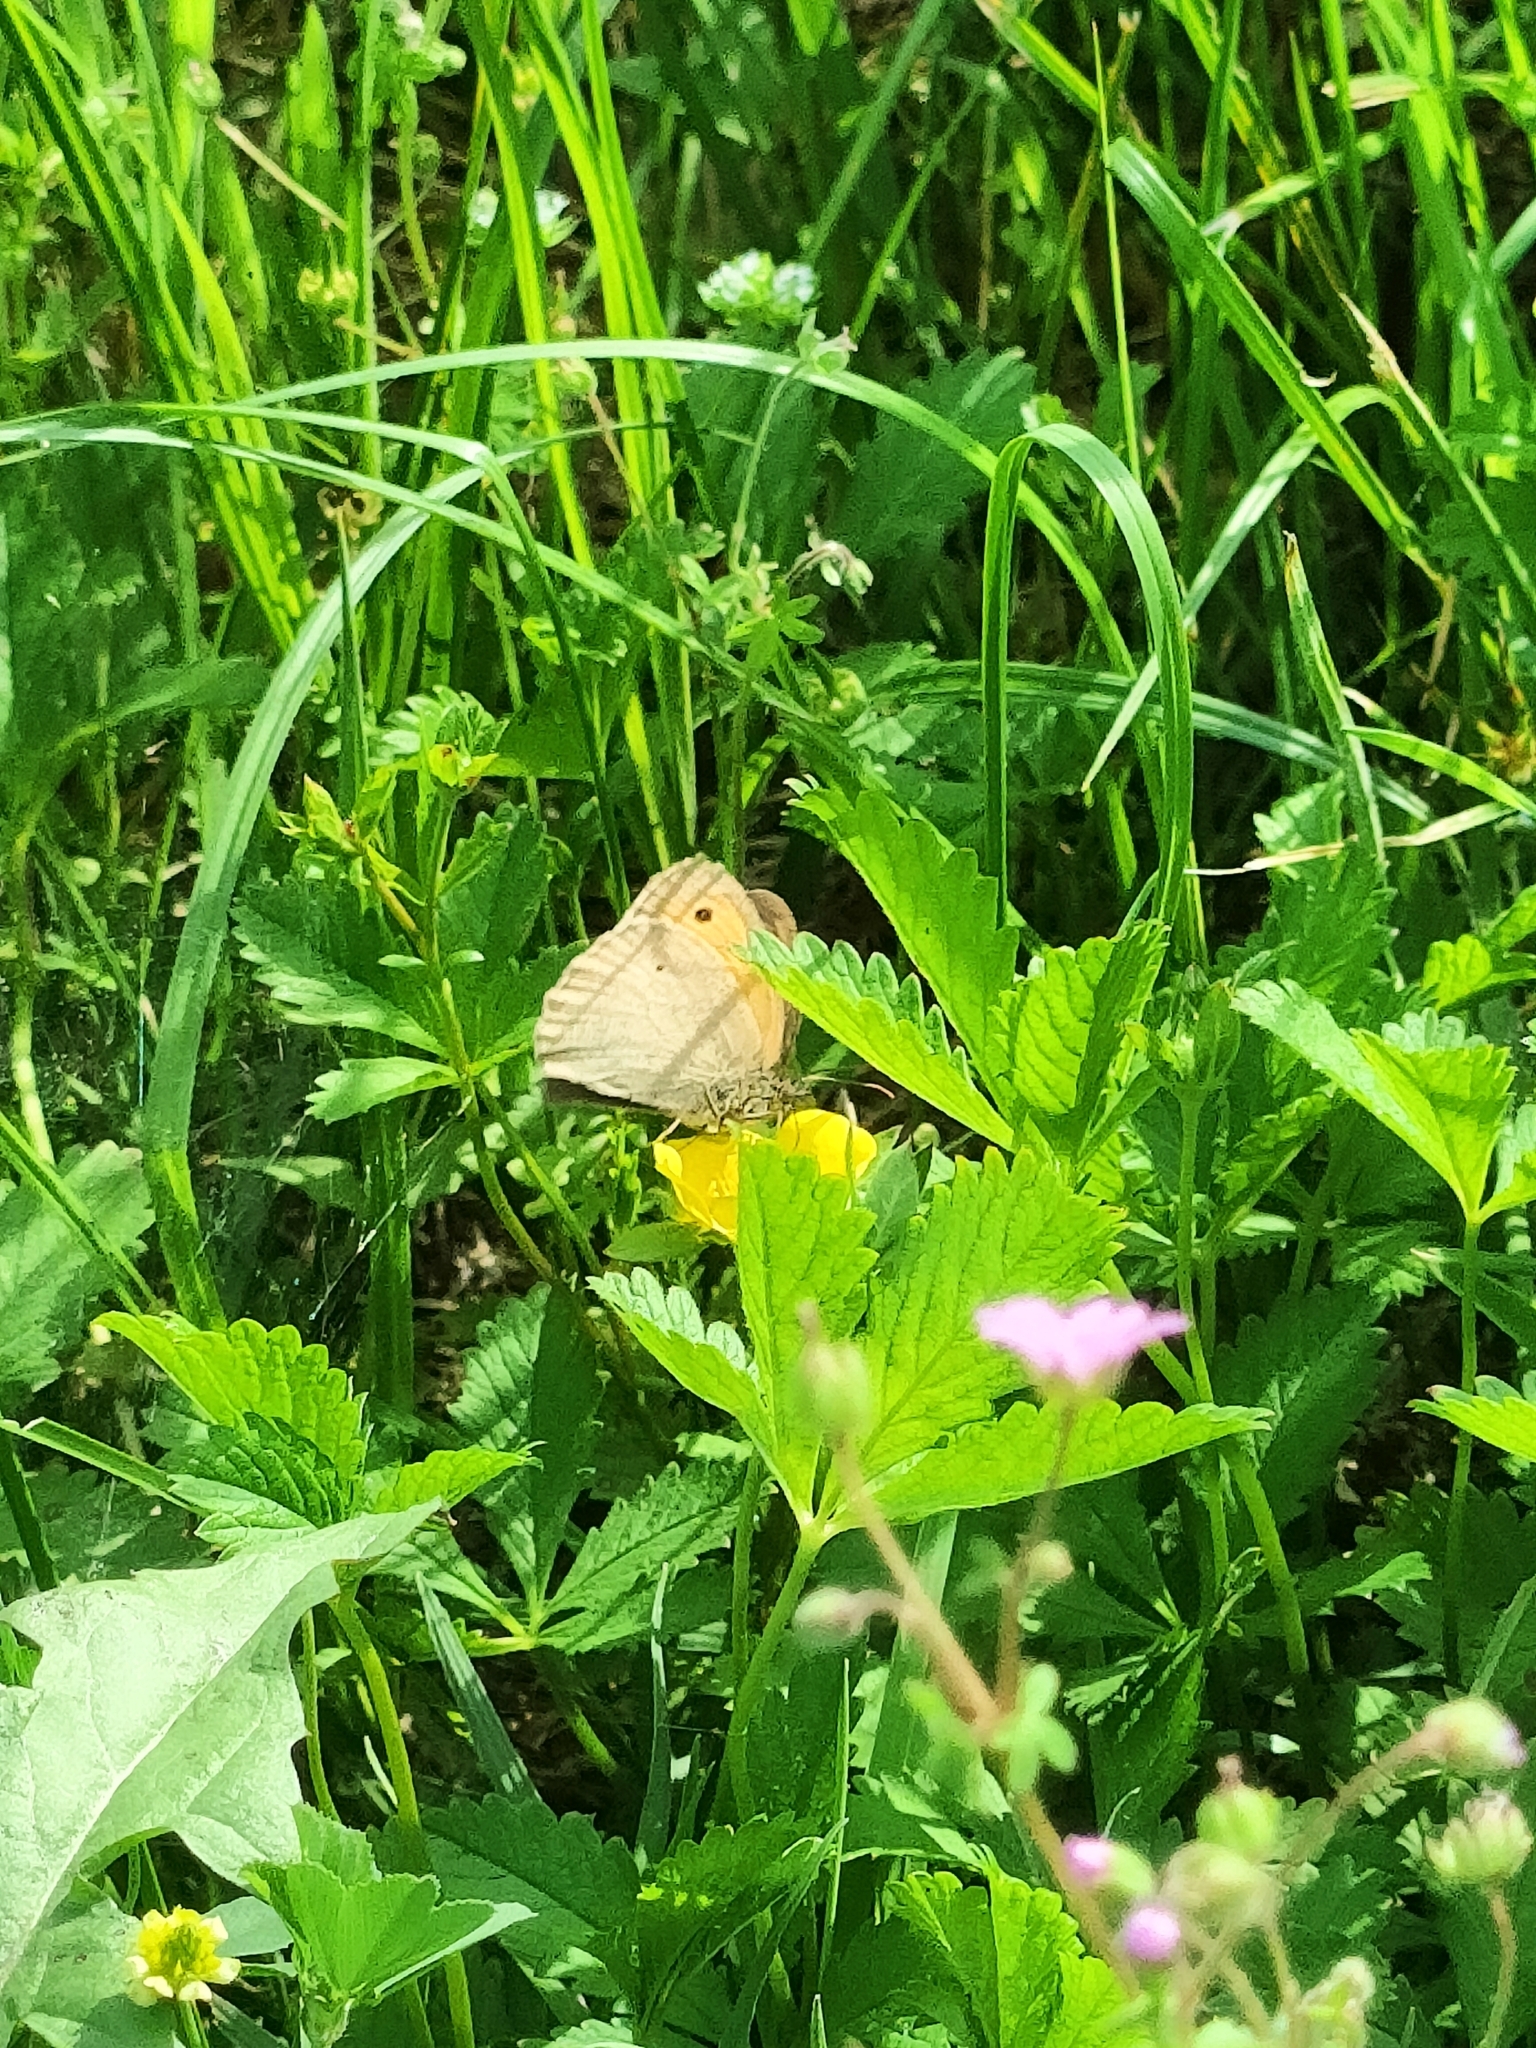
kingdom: Animalia
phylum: Arthropoda
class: Insecta
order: Lepidoptera
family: Nymphalidae
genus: Maniola
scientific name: Maniola jurtina
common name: Meadow brown
